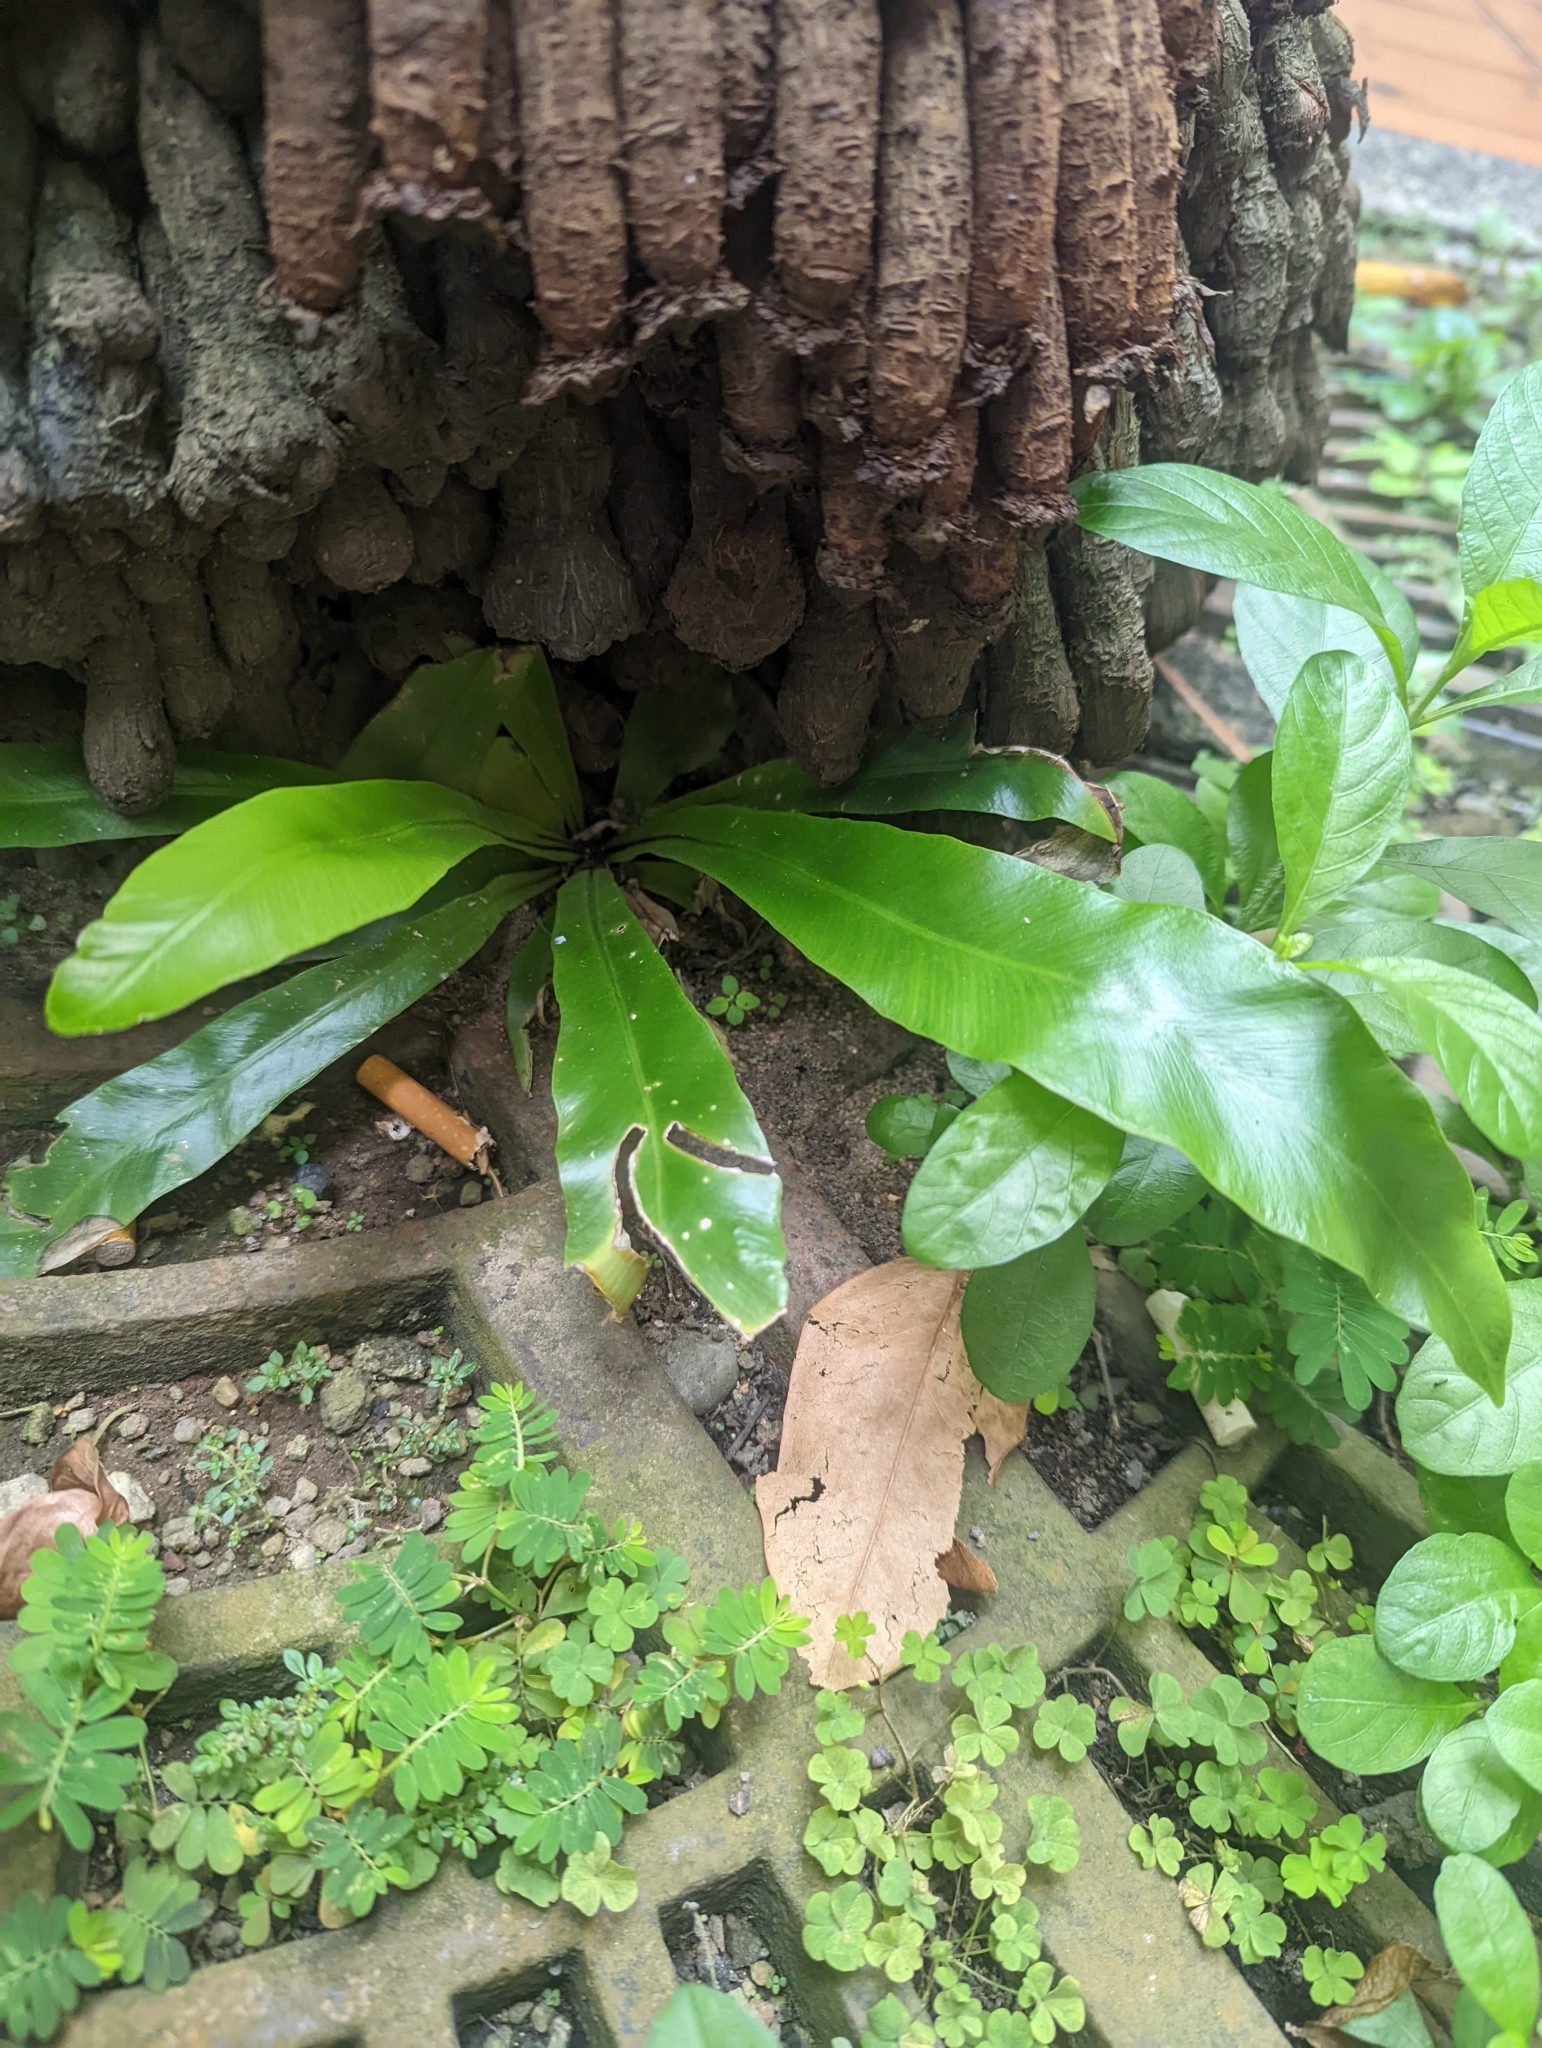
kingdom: Plantae
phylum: Tracheophyta
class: Polypodiopsida
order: Polypodiales
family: Aspleniaceae
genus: Asplenium
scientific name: Asplenium nidus
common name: Bird's-nest fern
